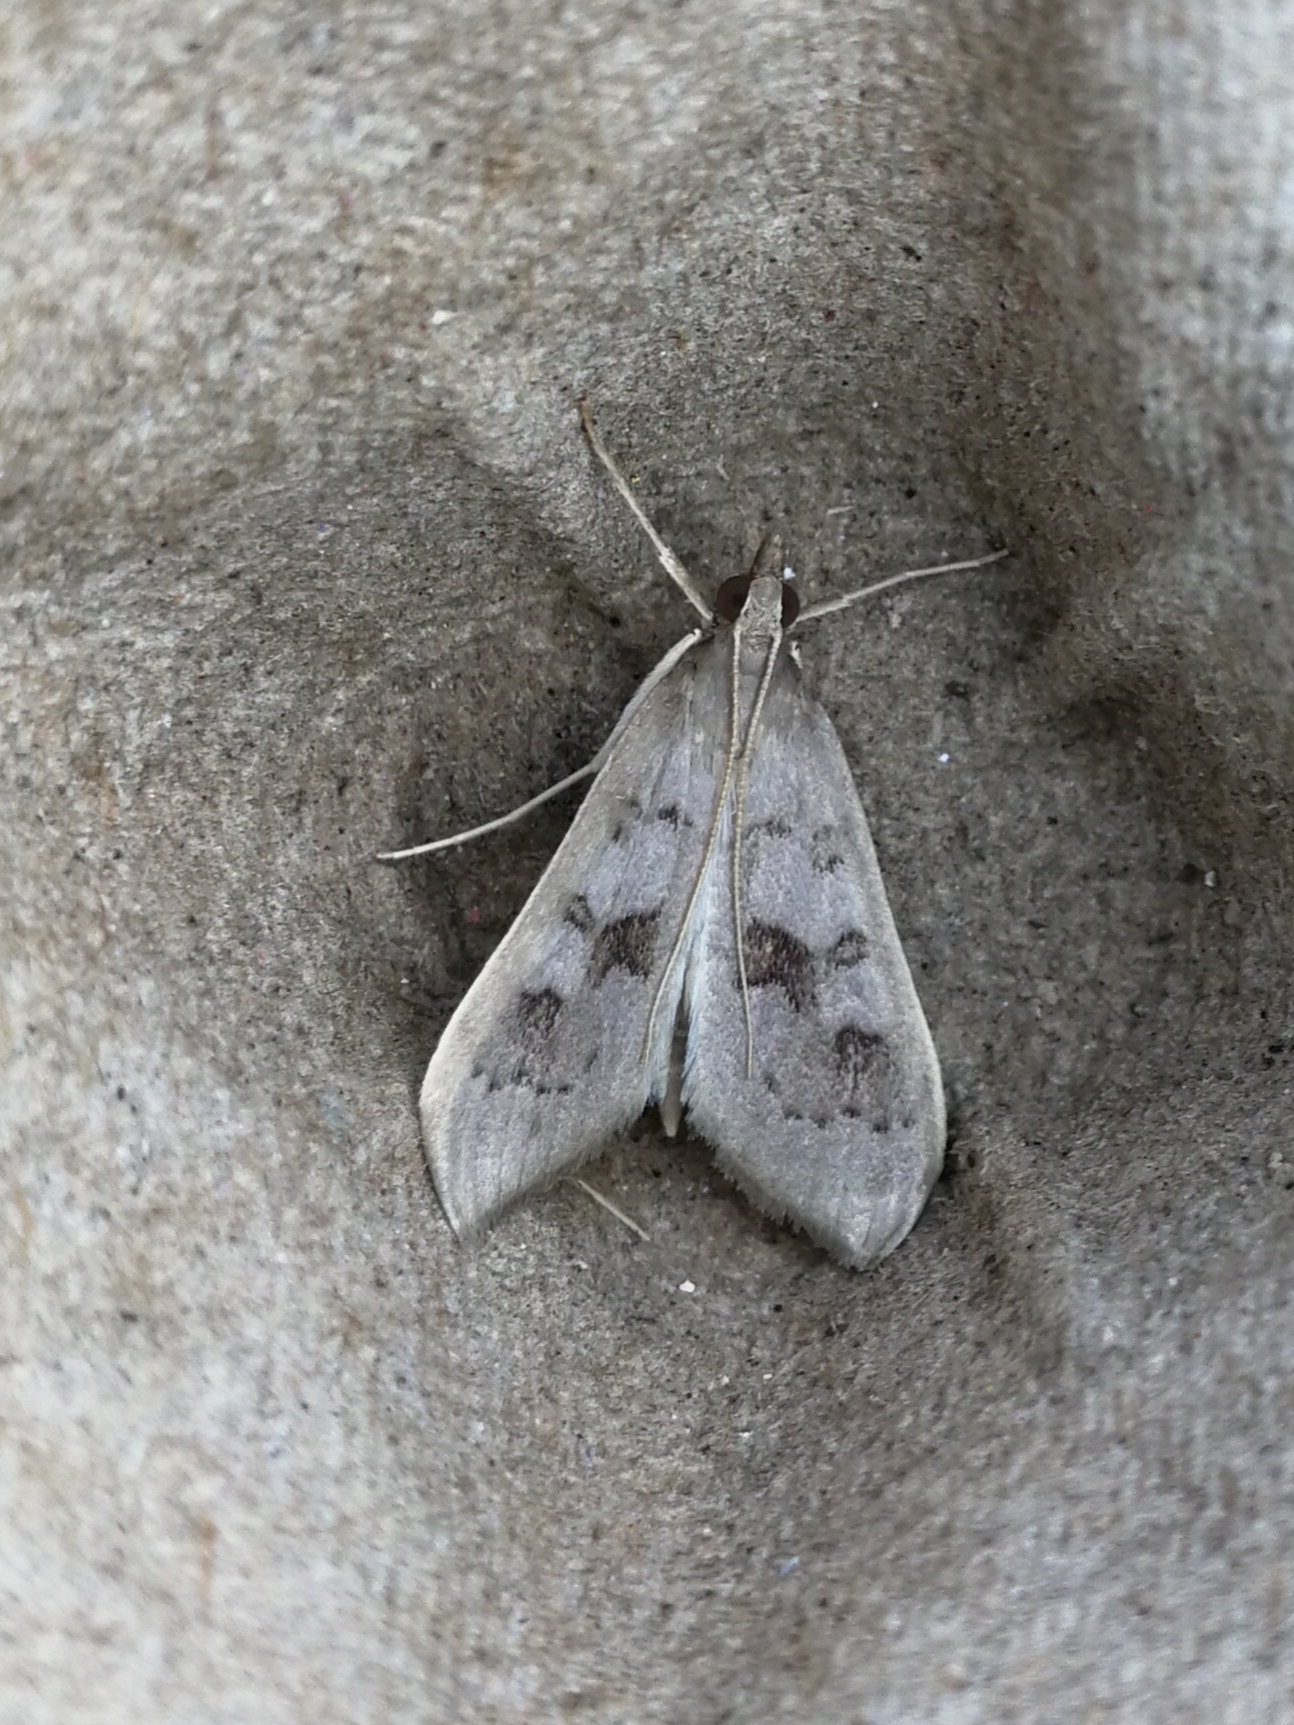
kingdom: Animalia
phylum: Arthropoda
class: Insecta
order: Lepidoptera
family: Crambidae
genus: Mecyna
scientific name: Mecyna asinalis
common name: Coastal pearl
